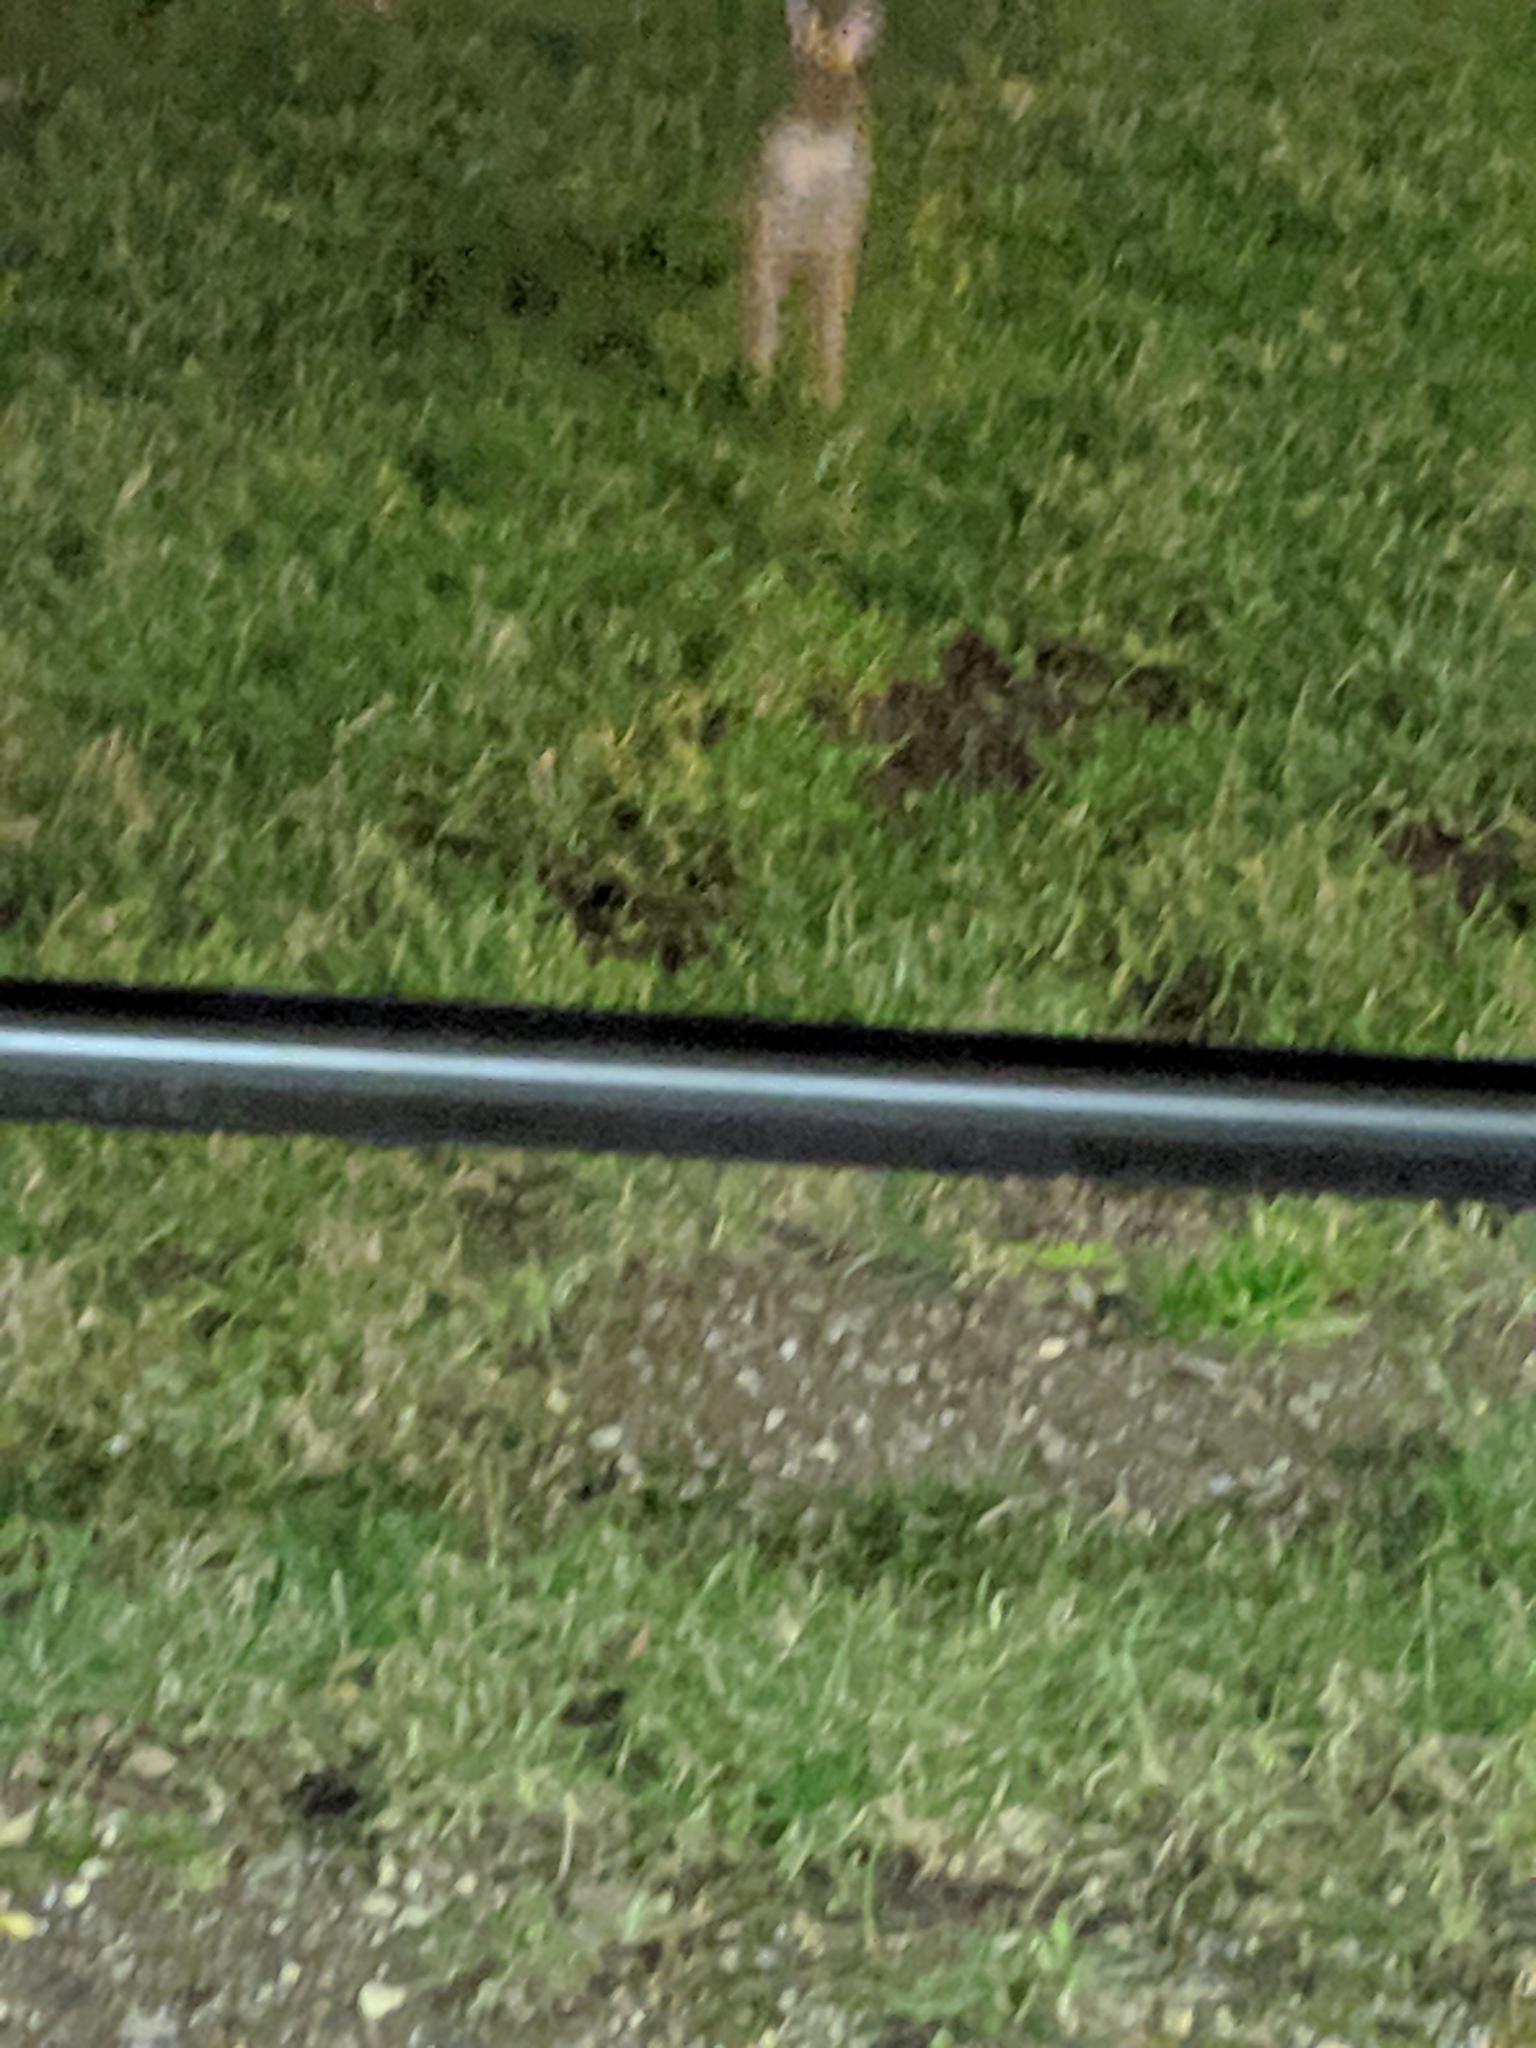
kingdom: Animalia
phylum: Chordata
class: Mammalia
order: Lagomorpha
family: Leporidae
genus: Sylvilagus
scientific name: Sylvilagus floridanus
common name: Eastern cottontail
